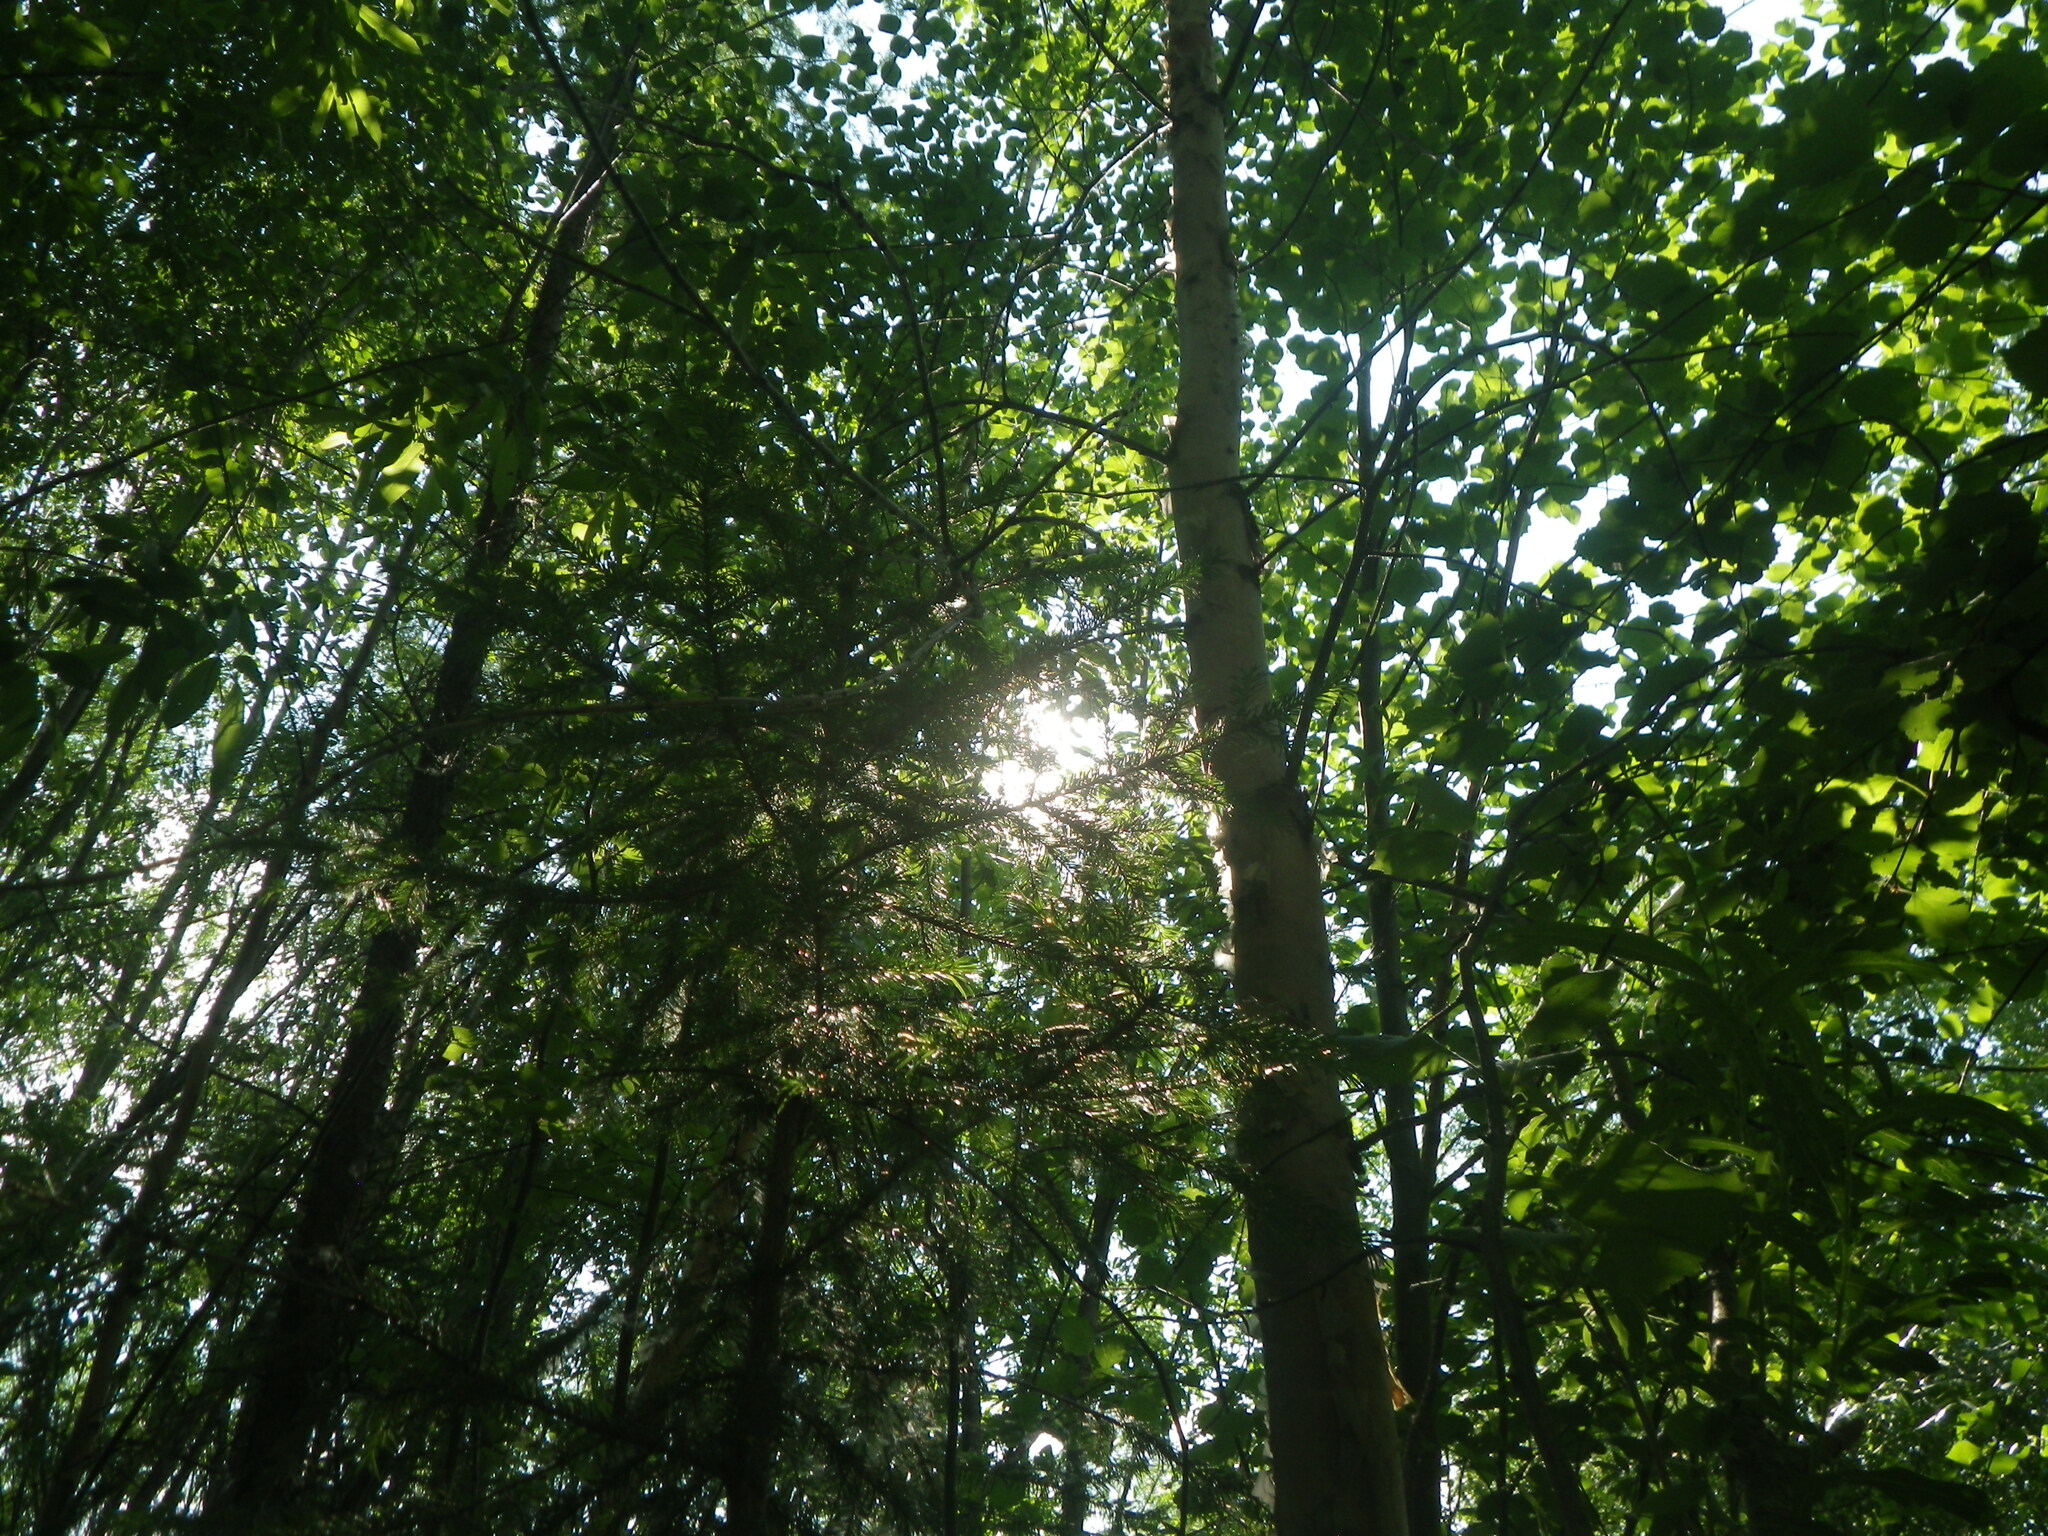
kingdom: Plantae
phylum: Tracheophyta
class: Pinopsida
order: Pinales
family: Pinaceae
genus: Picea
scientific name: Picea obovata
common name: Siberian spruce
